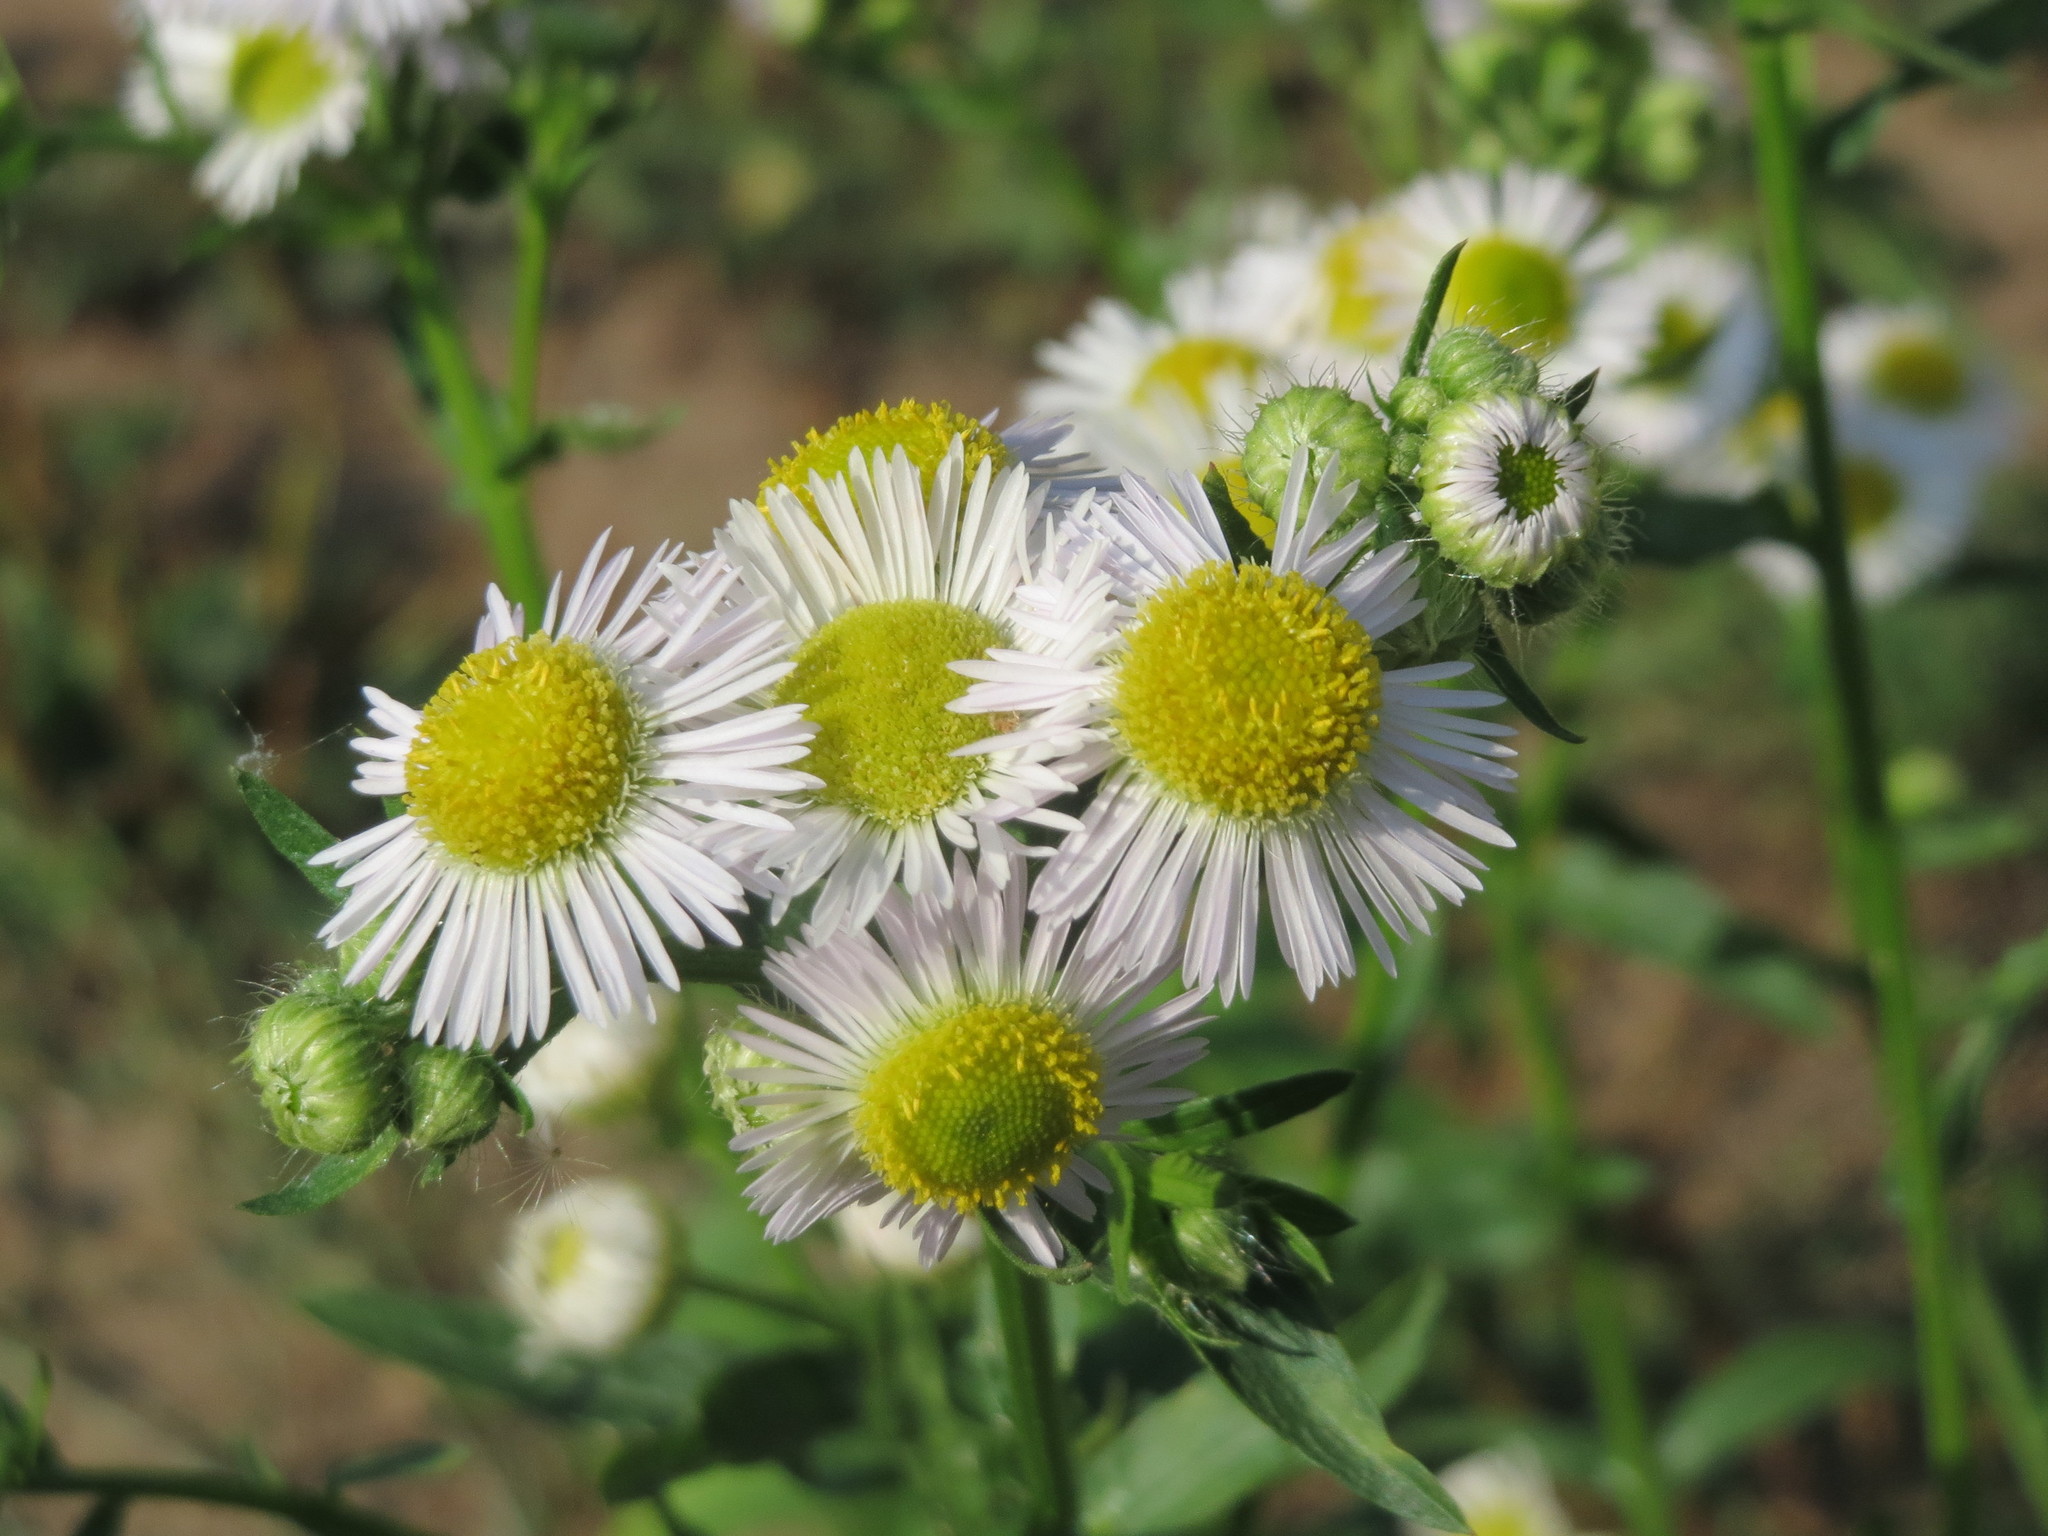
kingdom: Plantae
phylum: Tracheophyta
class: Magnoliopsida
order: Asterales
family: Asteraceae
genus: Erigeron
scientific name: Erigeron annuus
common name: Tall fleabane
